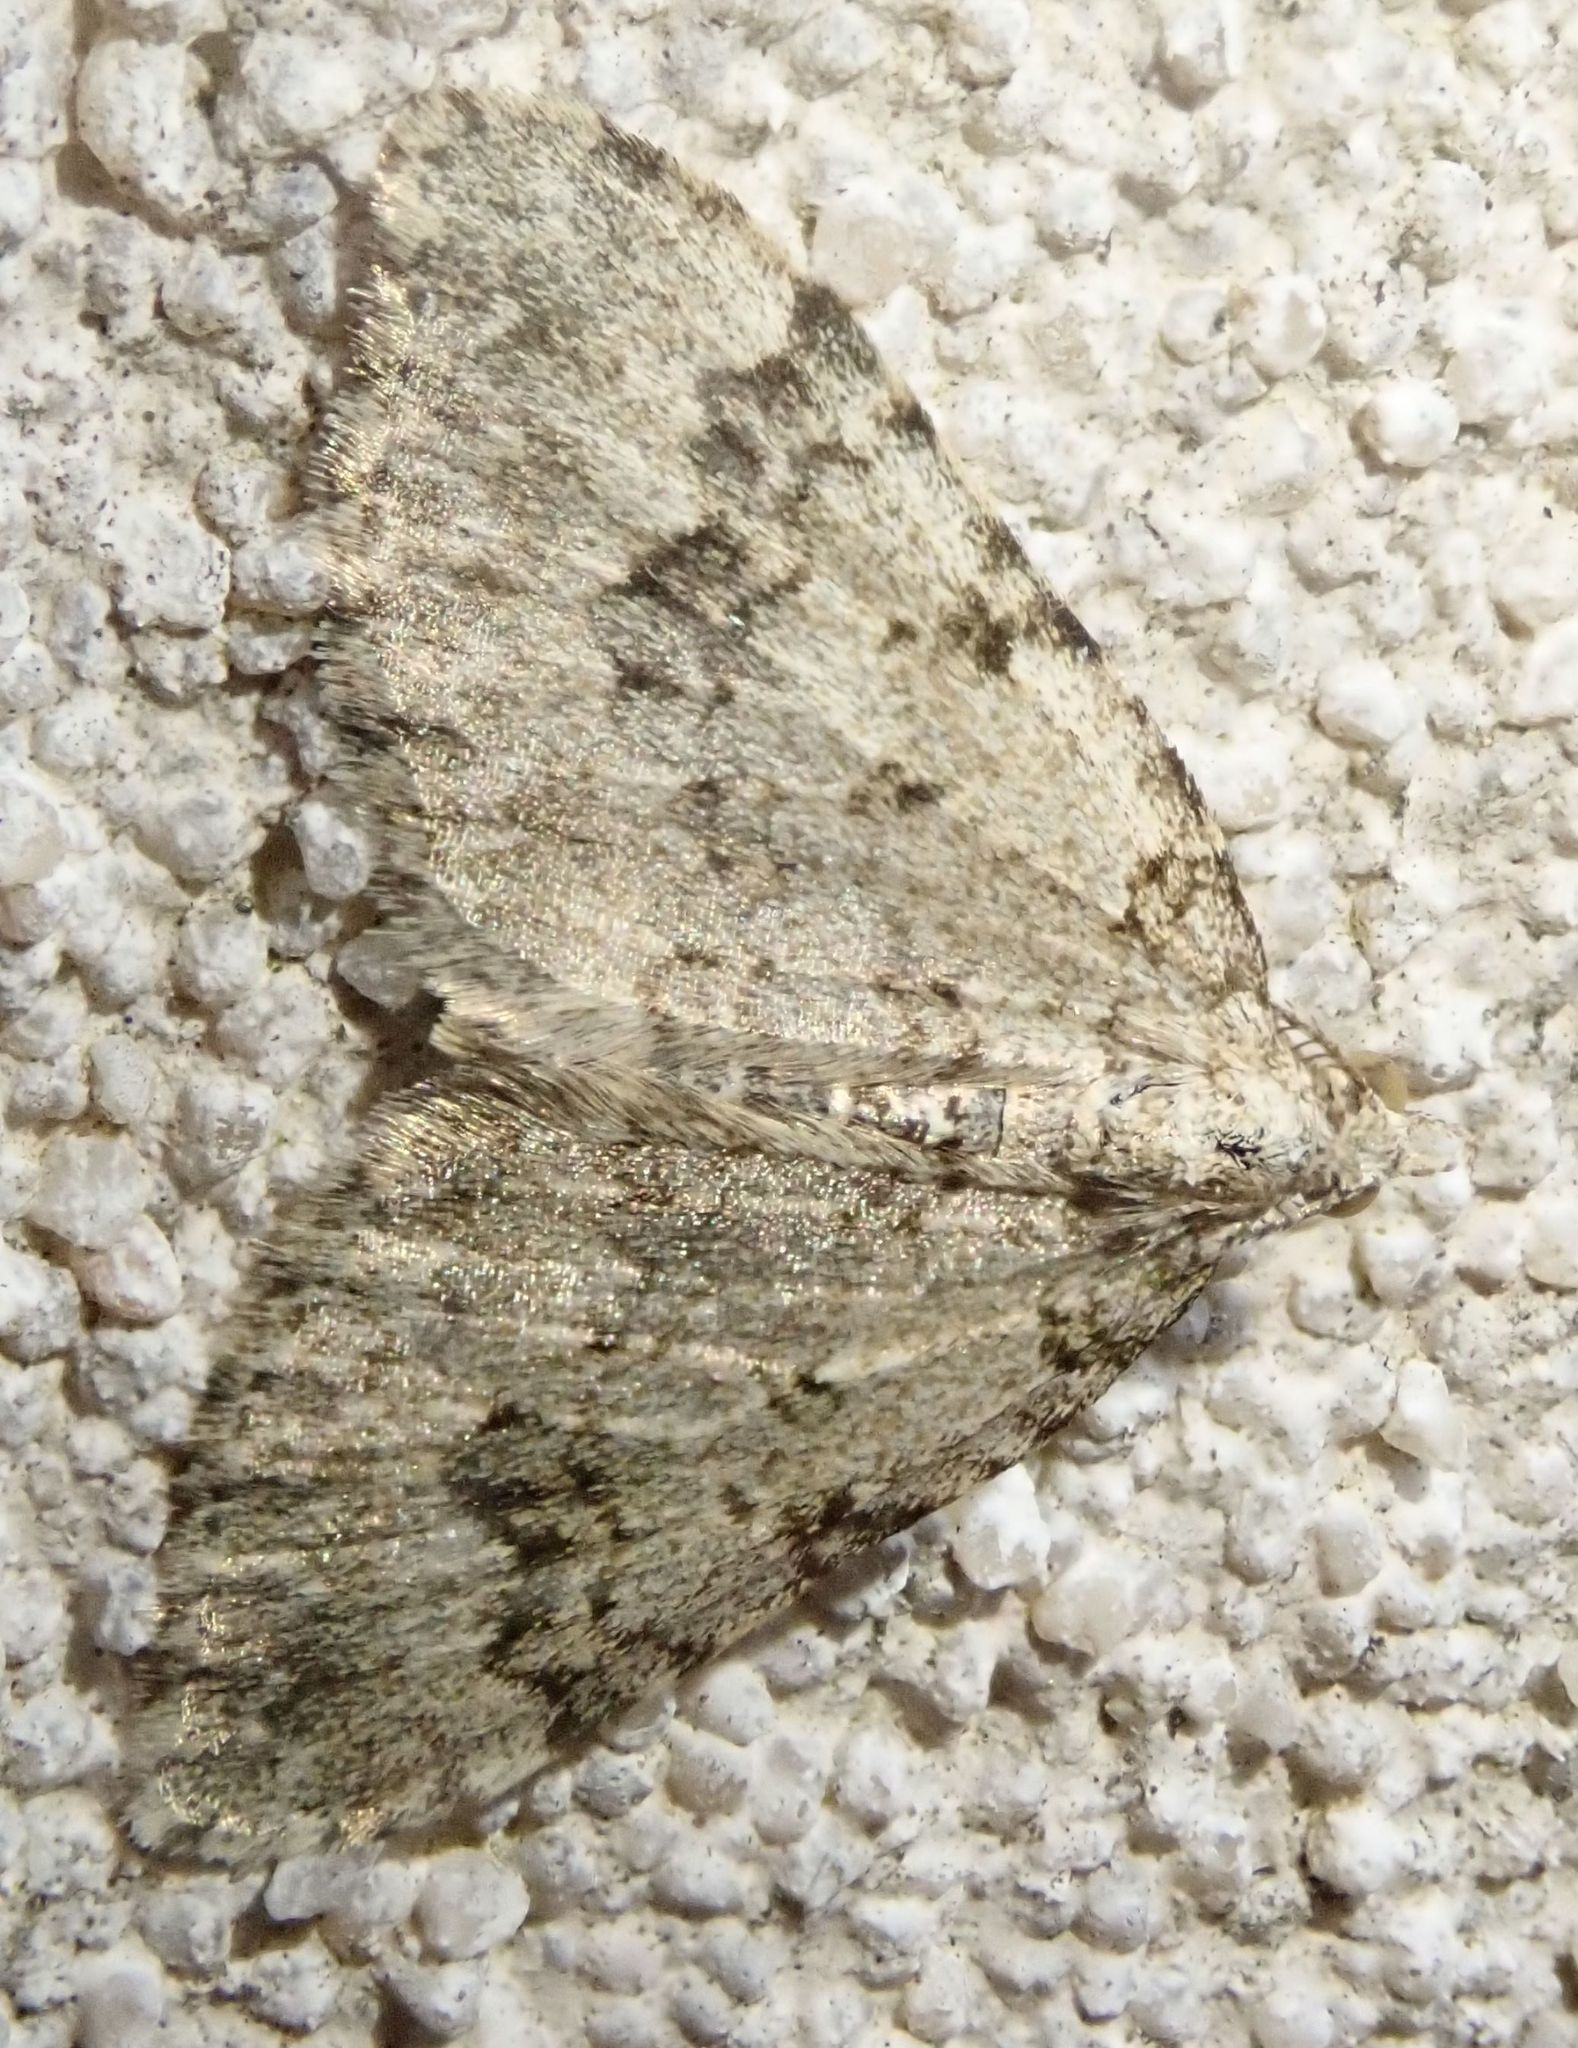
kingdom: Animalia
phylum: Arthropoda
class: Insecta
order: Lepidoptera
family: Geometridae
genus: Helastia
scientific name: Helastia cinerearia
